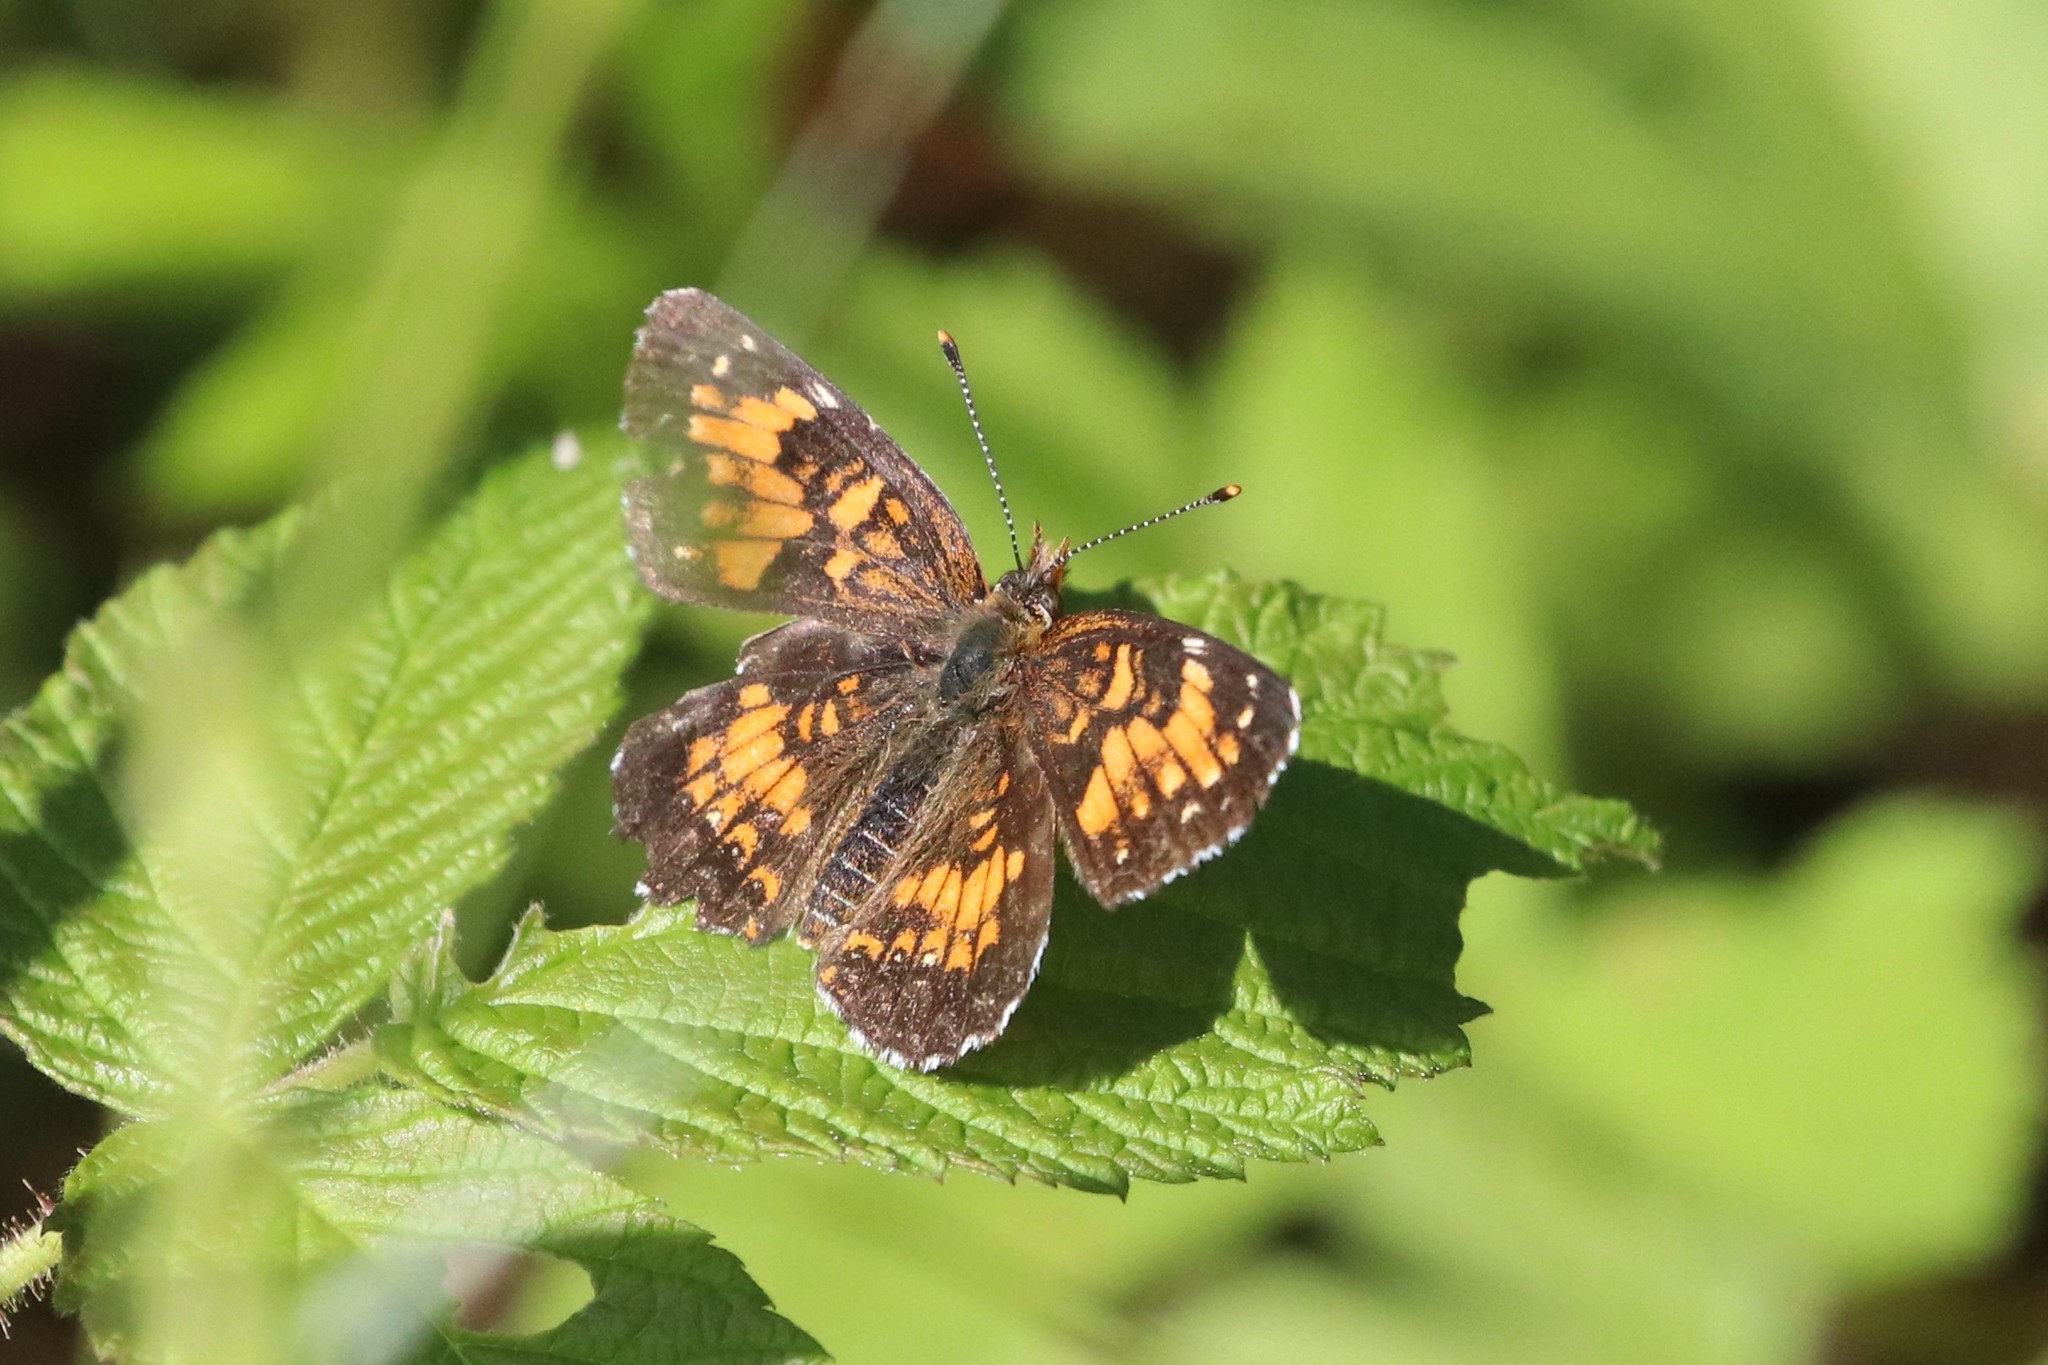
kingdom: Animalia
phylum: Arthropoda
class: Insecta
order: Lepidoptera
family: Nymphalidae
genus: Chlosyne
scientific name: Chlosyne harrisii
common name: Harris's checkerspot
